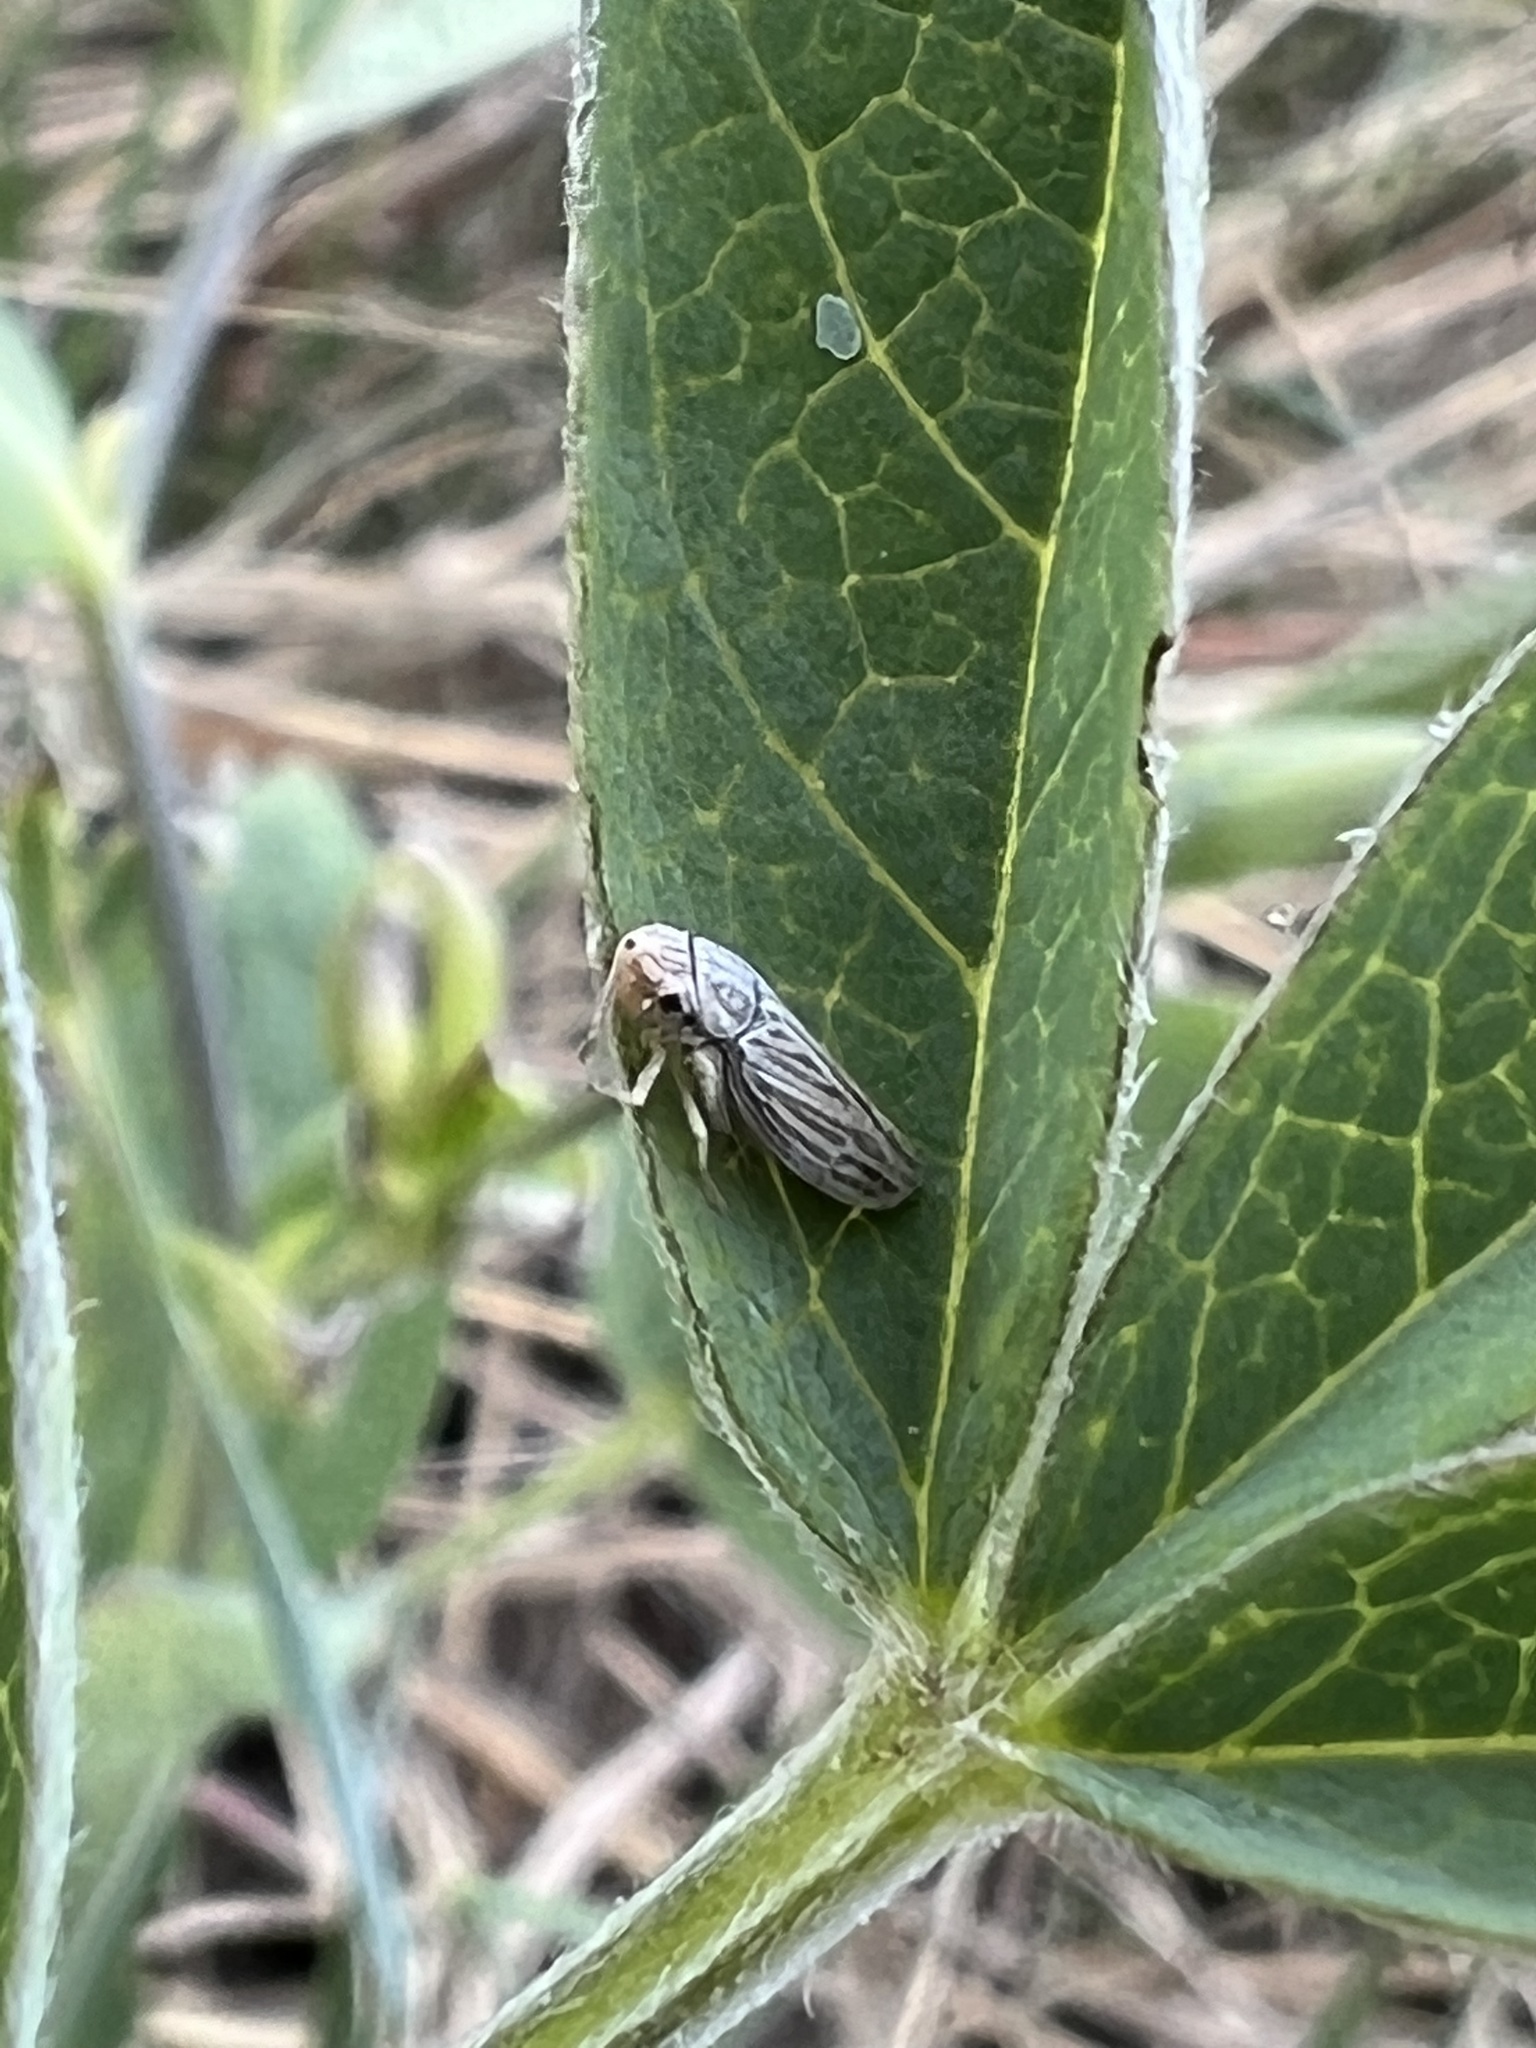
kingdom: Animalia
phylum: Arthropoda
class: Insecta
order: Hemiptera
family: Cicadellidae
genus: Neokolla
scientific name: Neokolla hieroglyphica
